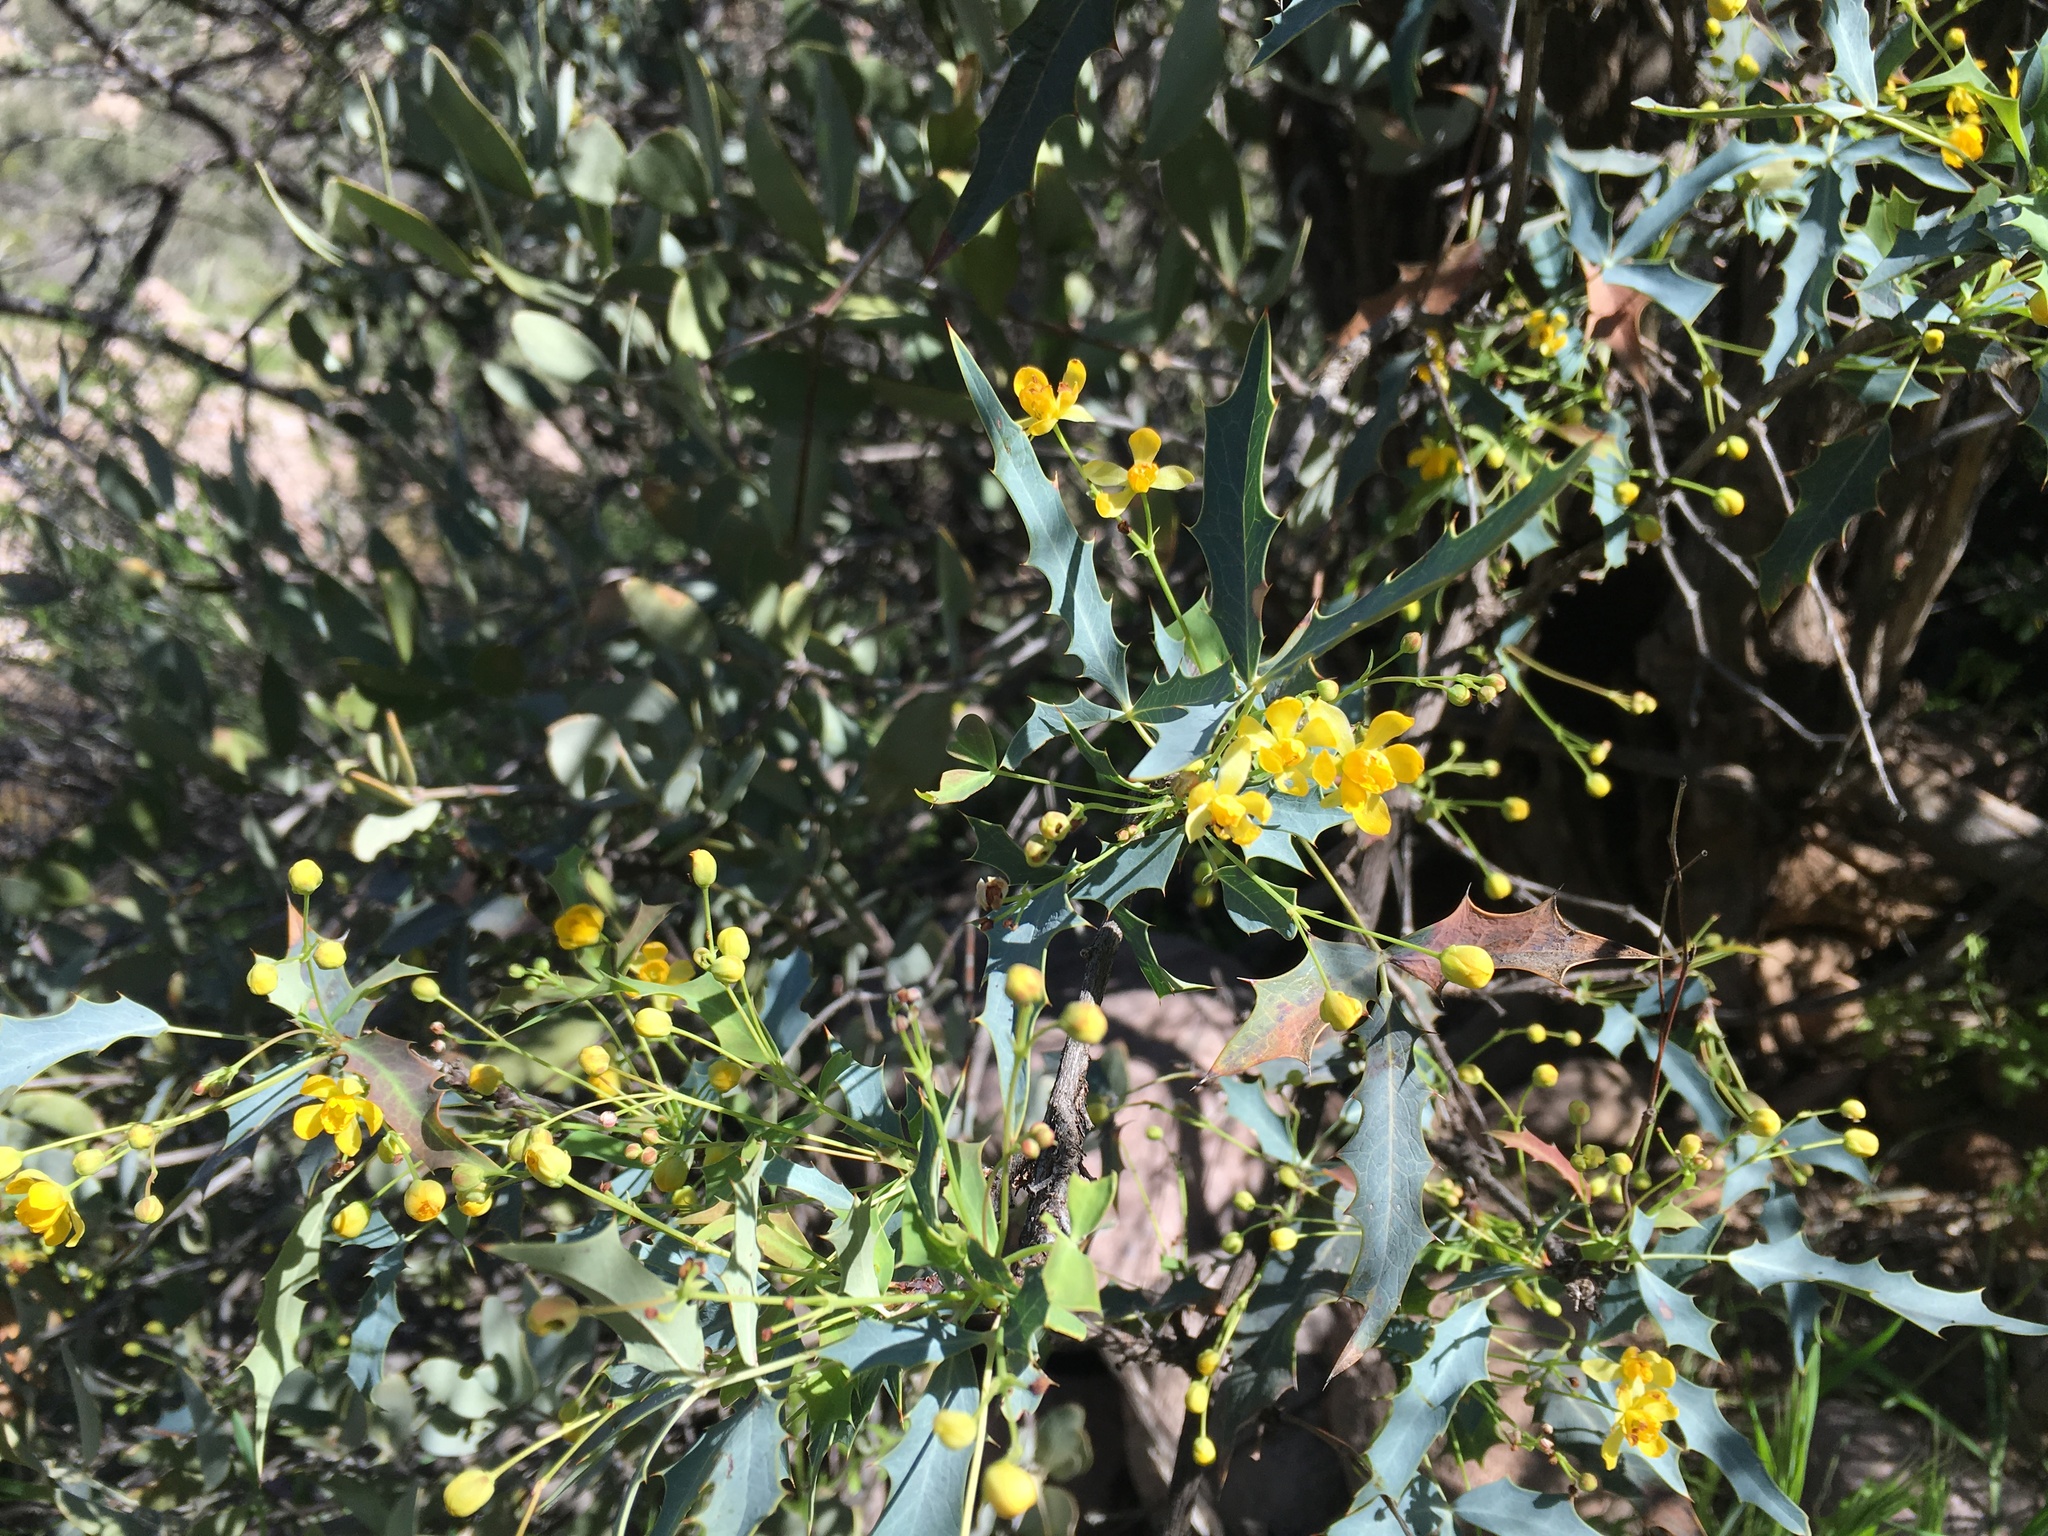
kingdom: Plantae
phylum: Tracheophyta
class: Magnoliopsida
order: Ranunculales
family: Berberidaceae
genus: Alloberberis
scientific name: Alloberberis haematocarpa
